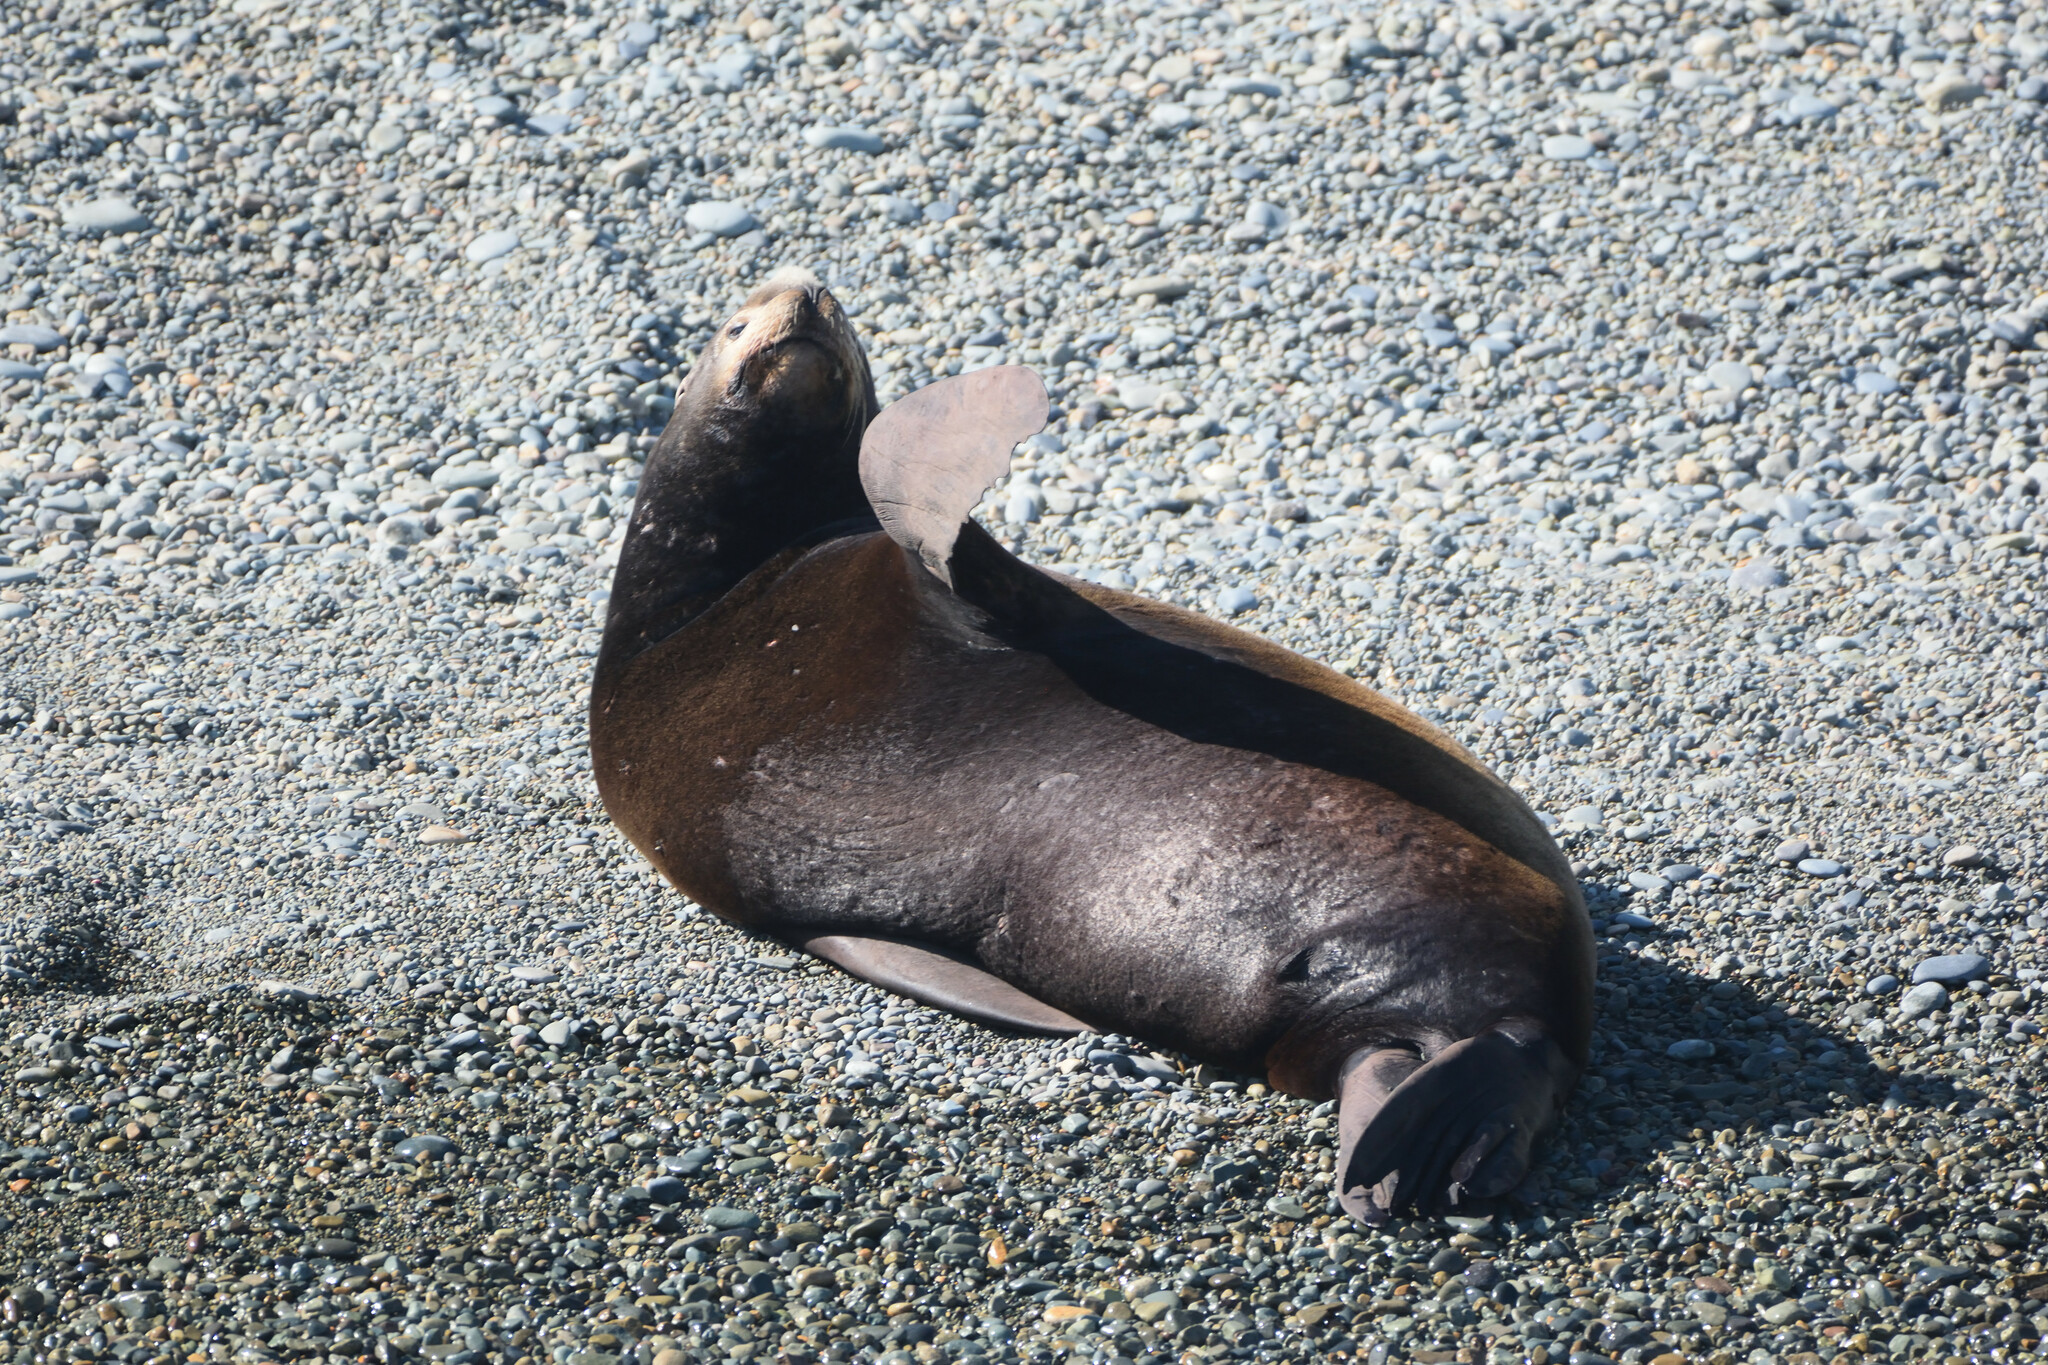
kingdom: Animalia
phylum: Chordata
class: Mammalia
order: Carnivora
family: Otariidae
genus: Zalophus
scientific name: Zalophus californianus
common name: California sea lion
